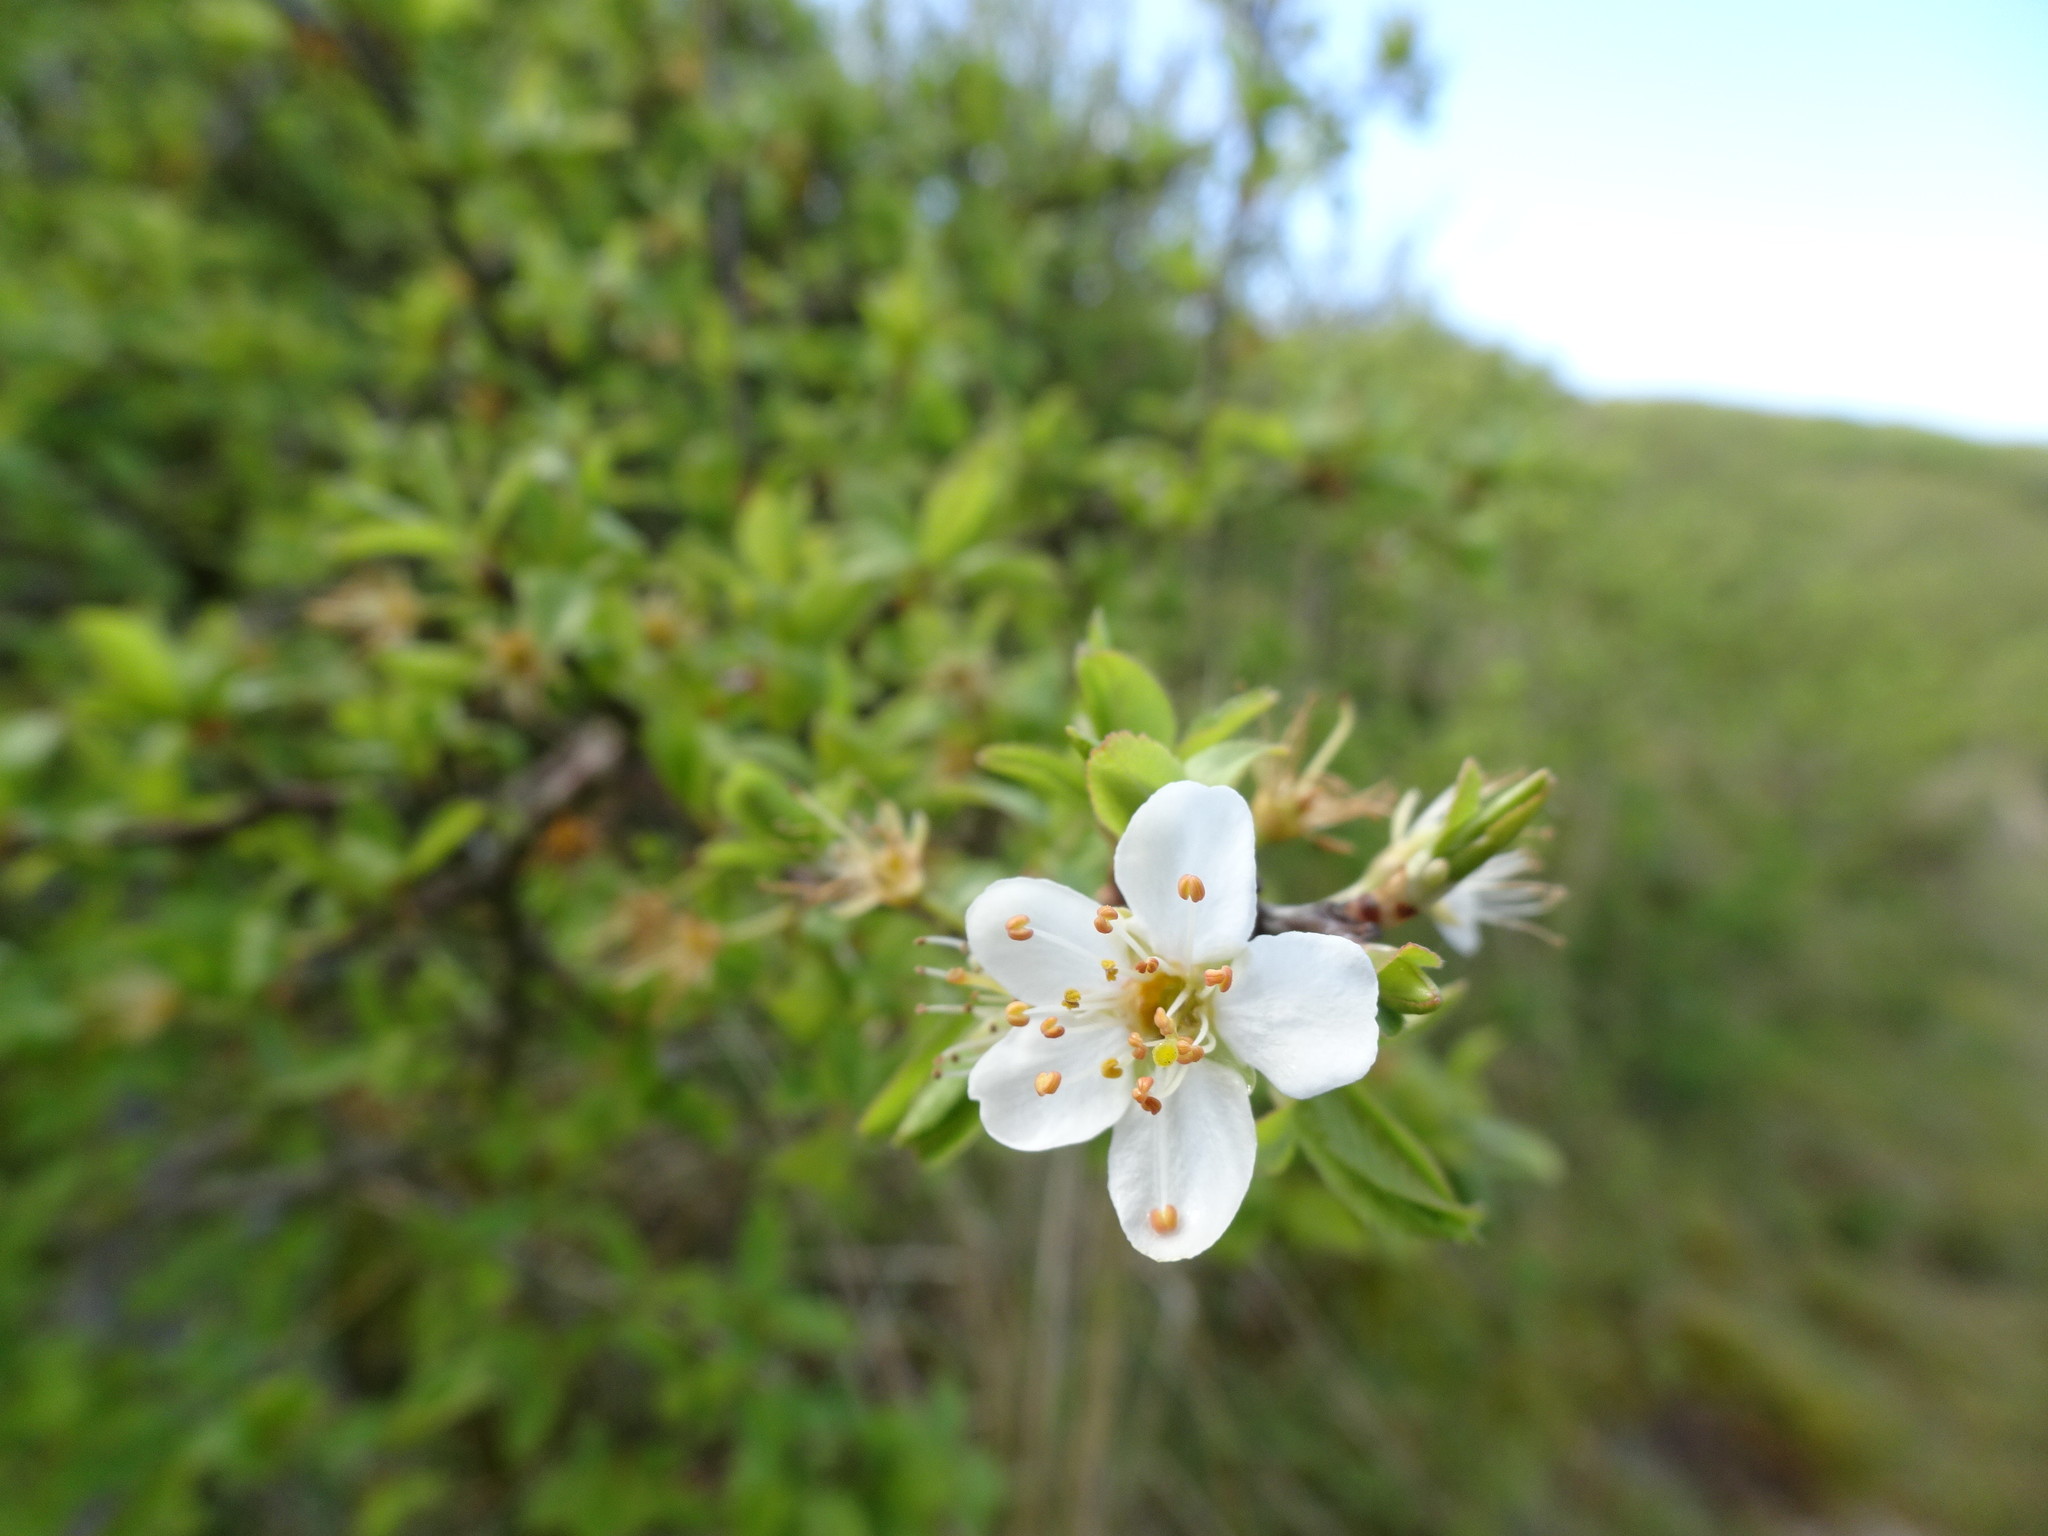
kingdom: Plantae
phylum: Tracheophyta
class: Magnoliopsida
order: Rosales
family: Rosaceae
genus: Prunus
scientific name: Prunus spinosa
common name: Blackthorn
